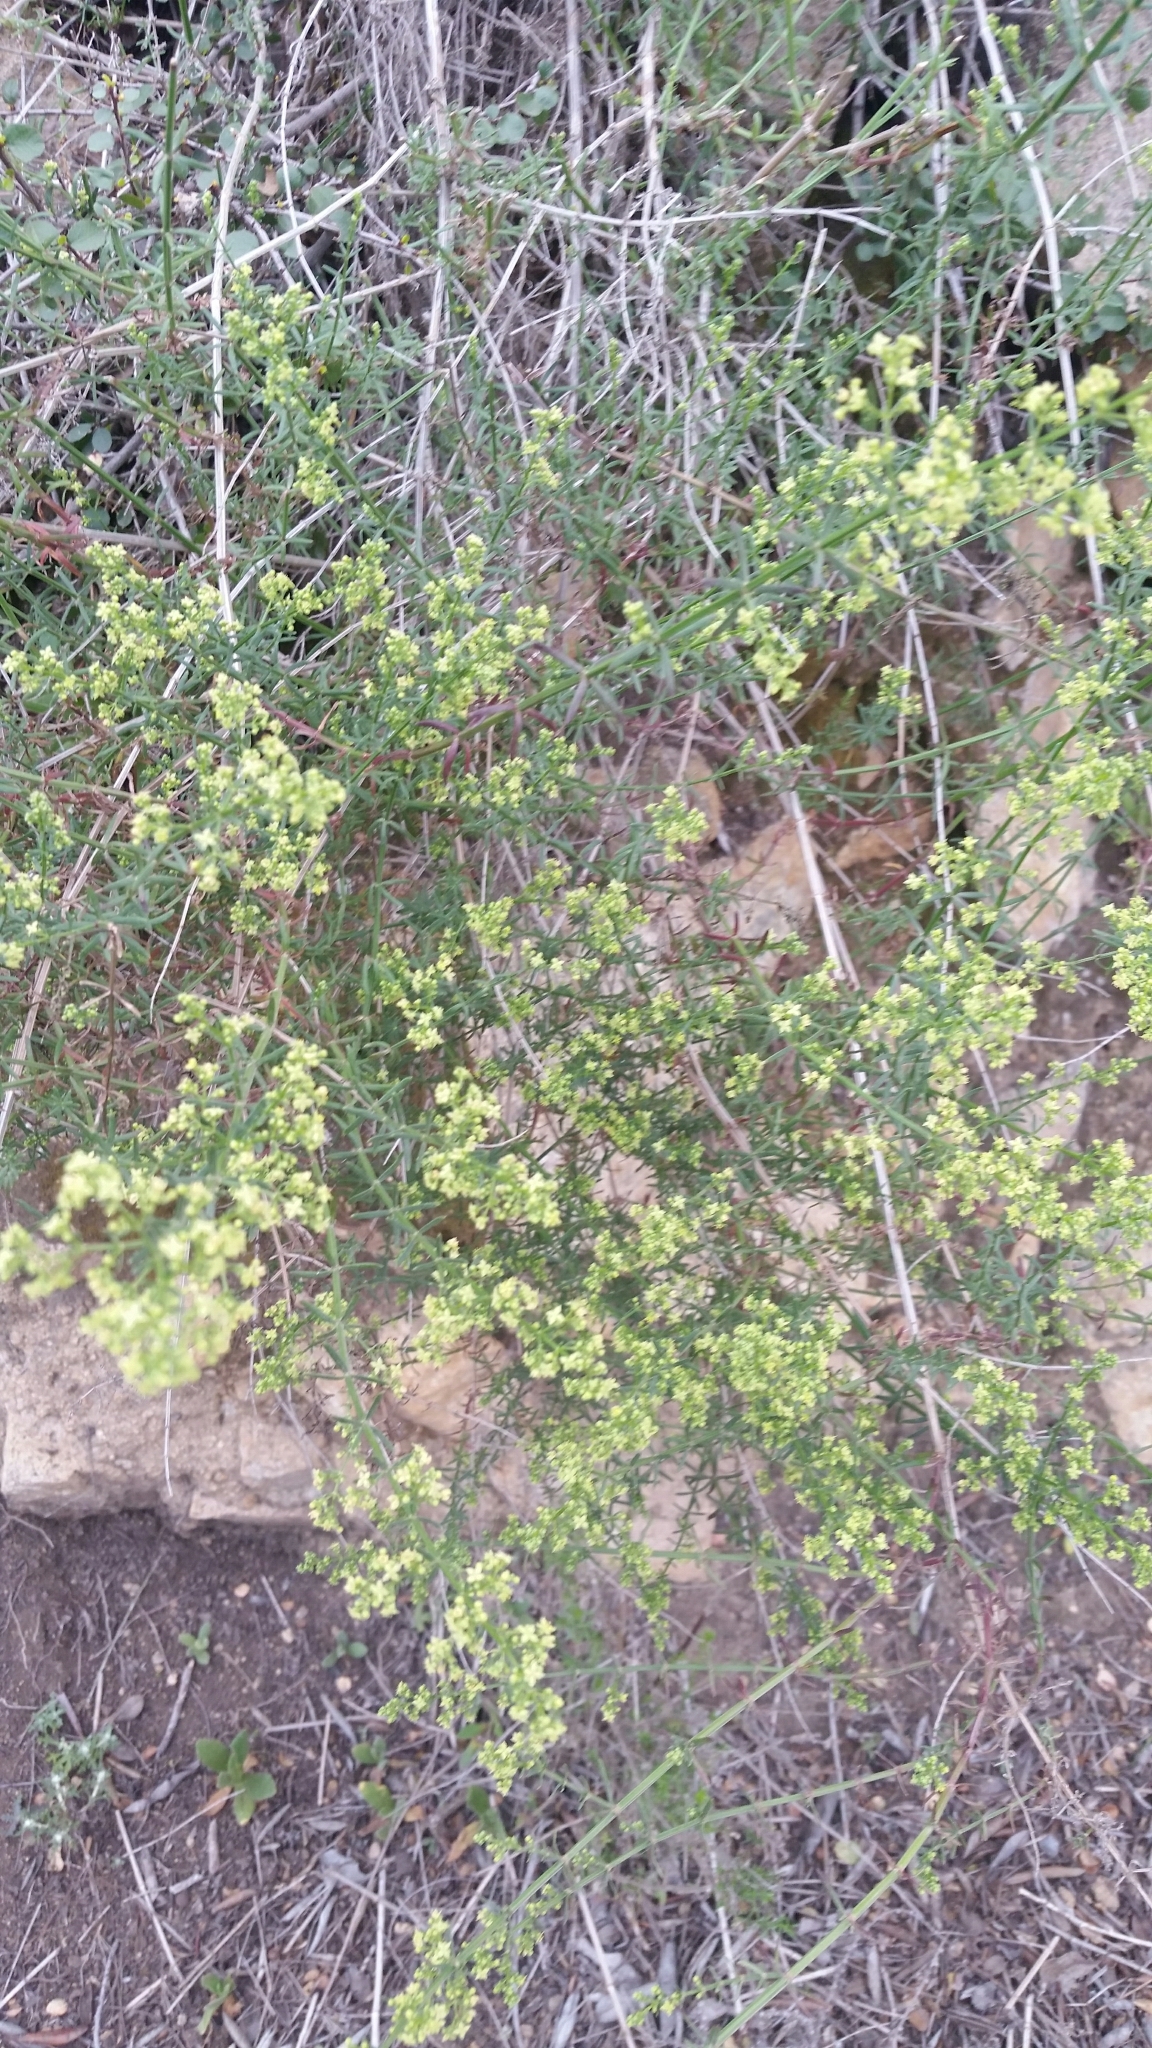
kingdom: Plantae
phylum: Tracheophyta
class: Magnoliopsida
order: Gentianales
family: Rubiaceae
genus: Galium
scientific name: Galium angustifolium
